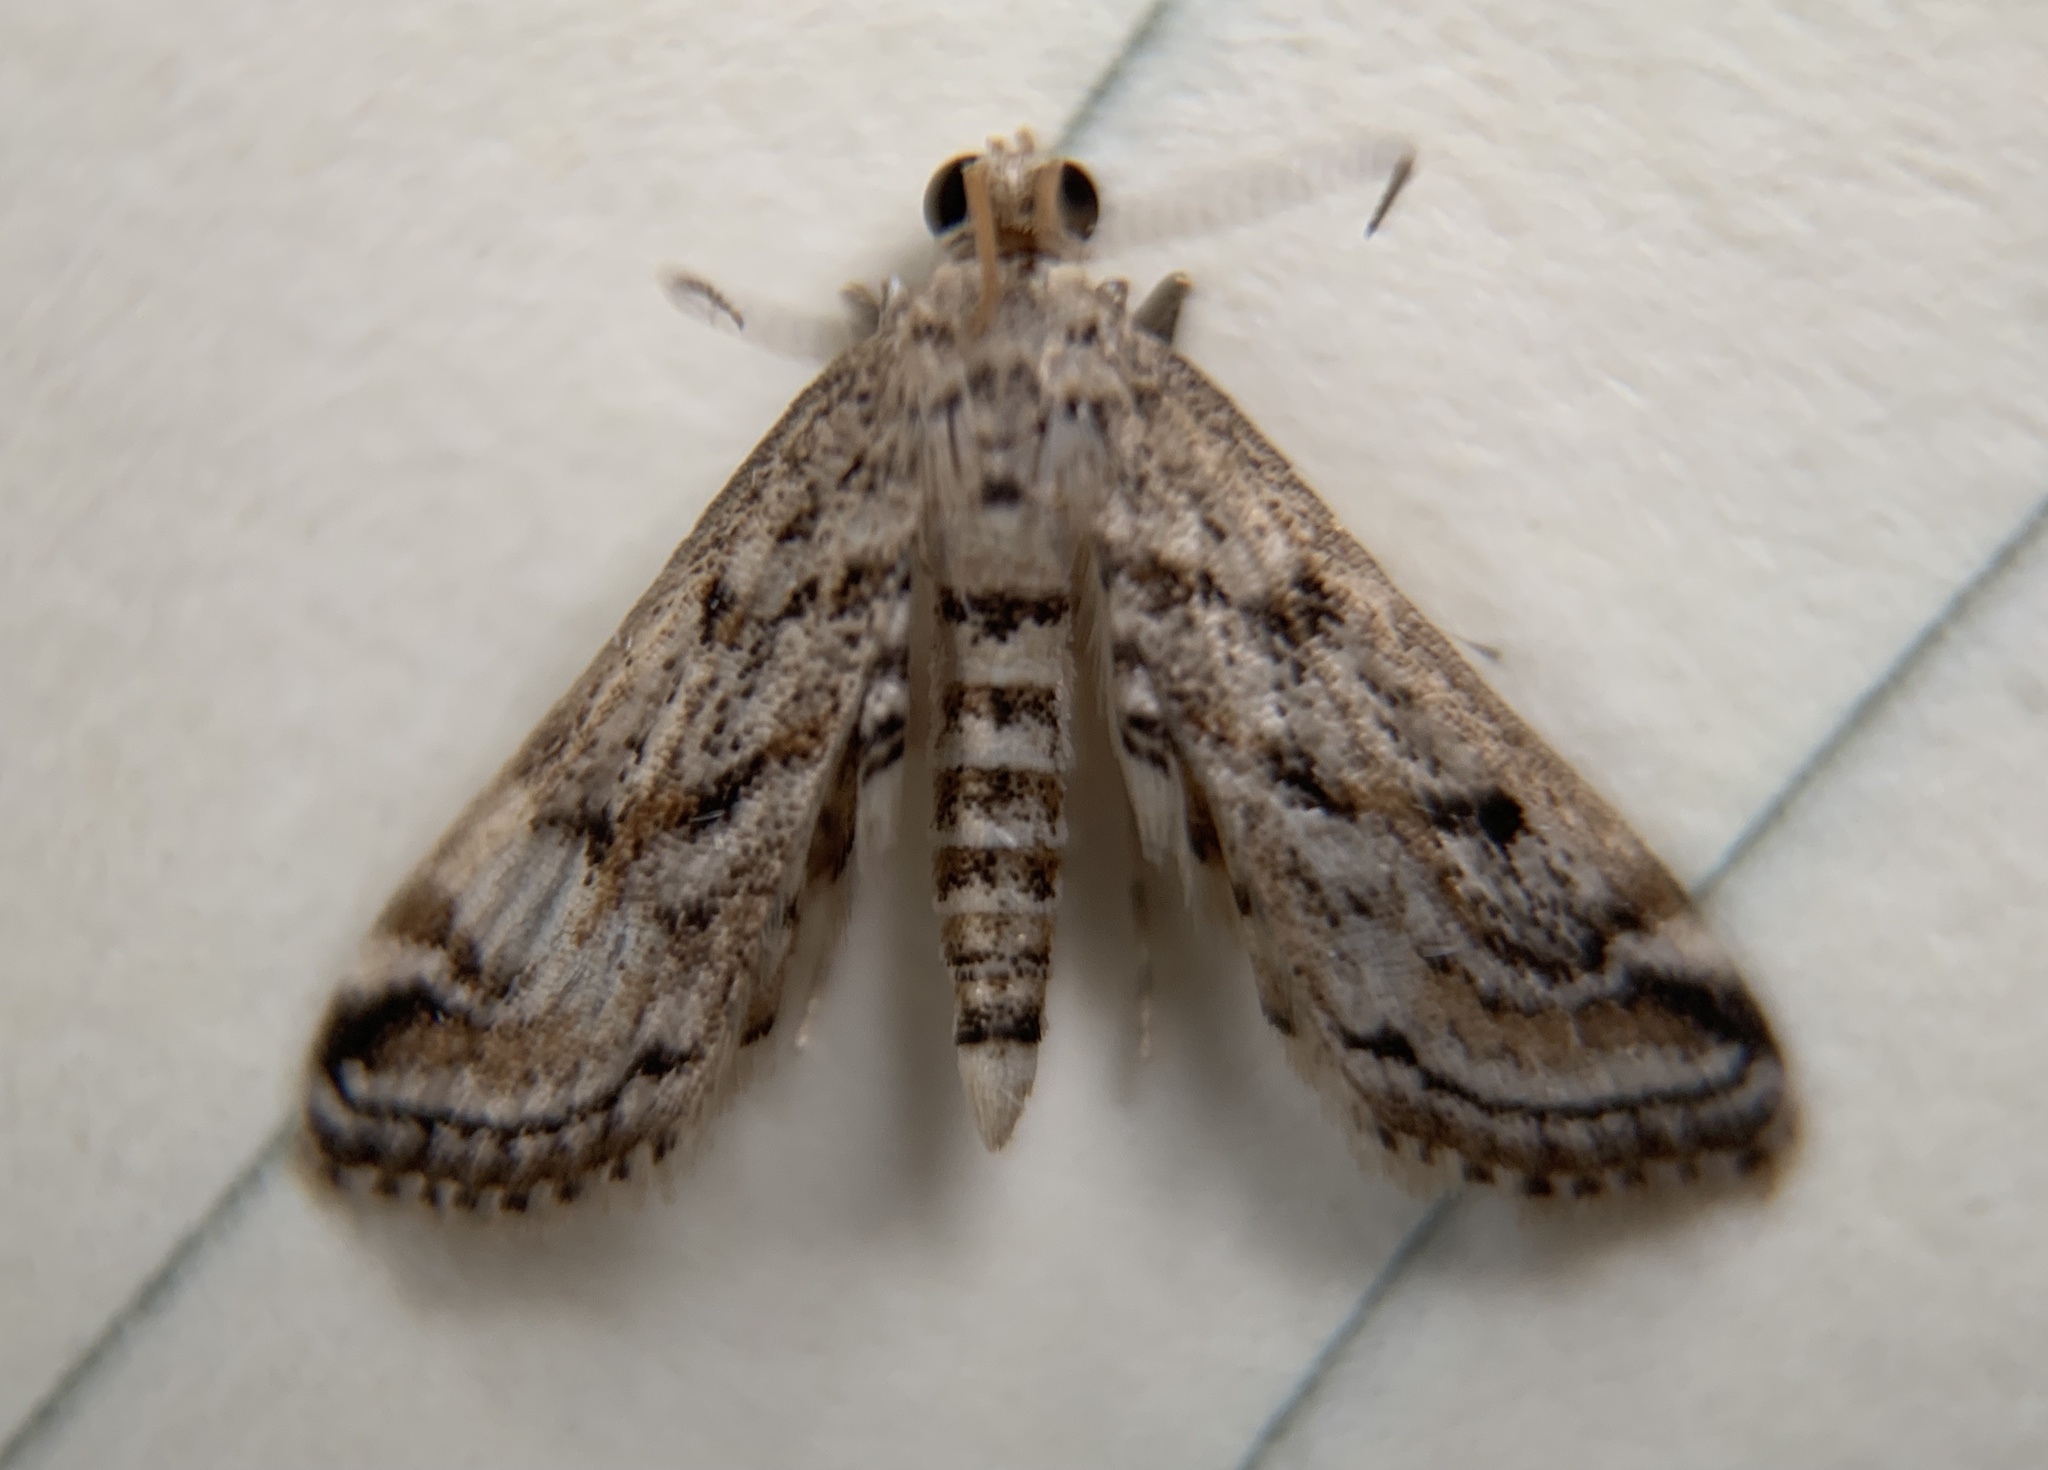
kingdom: Animalia
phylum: Arthropoda
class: Insecta
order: Lepidoptera
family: Crambidae
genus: Parapoynx
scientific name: Parapoynx allionealis
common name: Bladderwort casemaker
